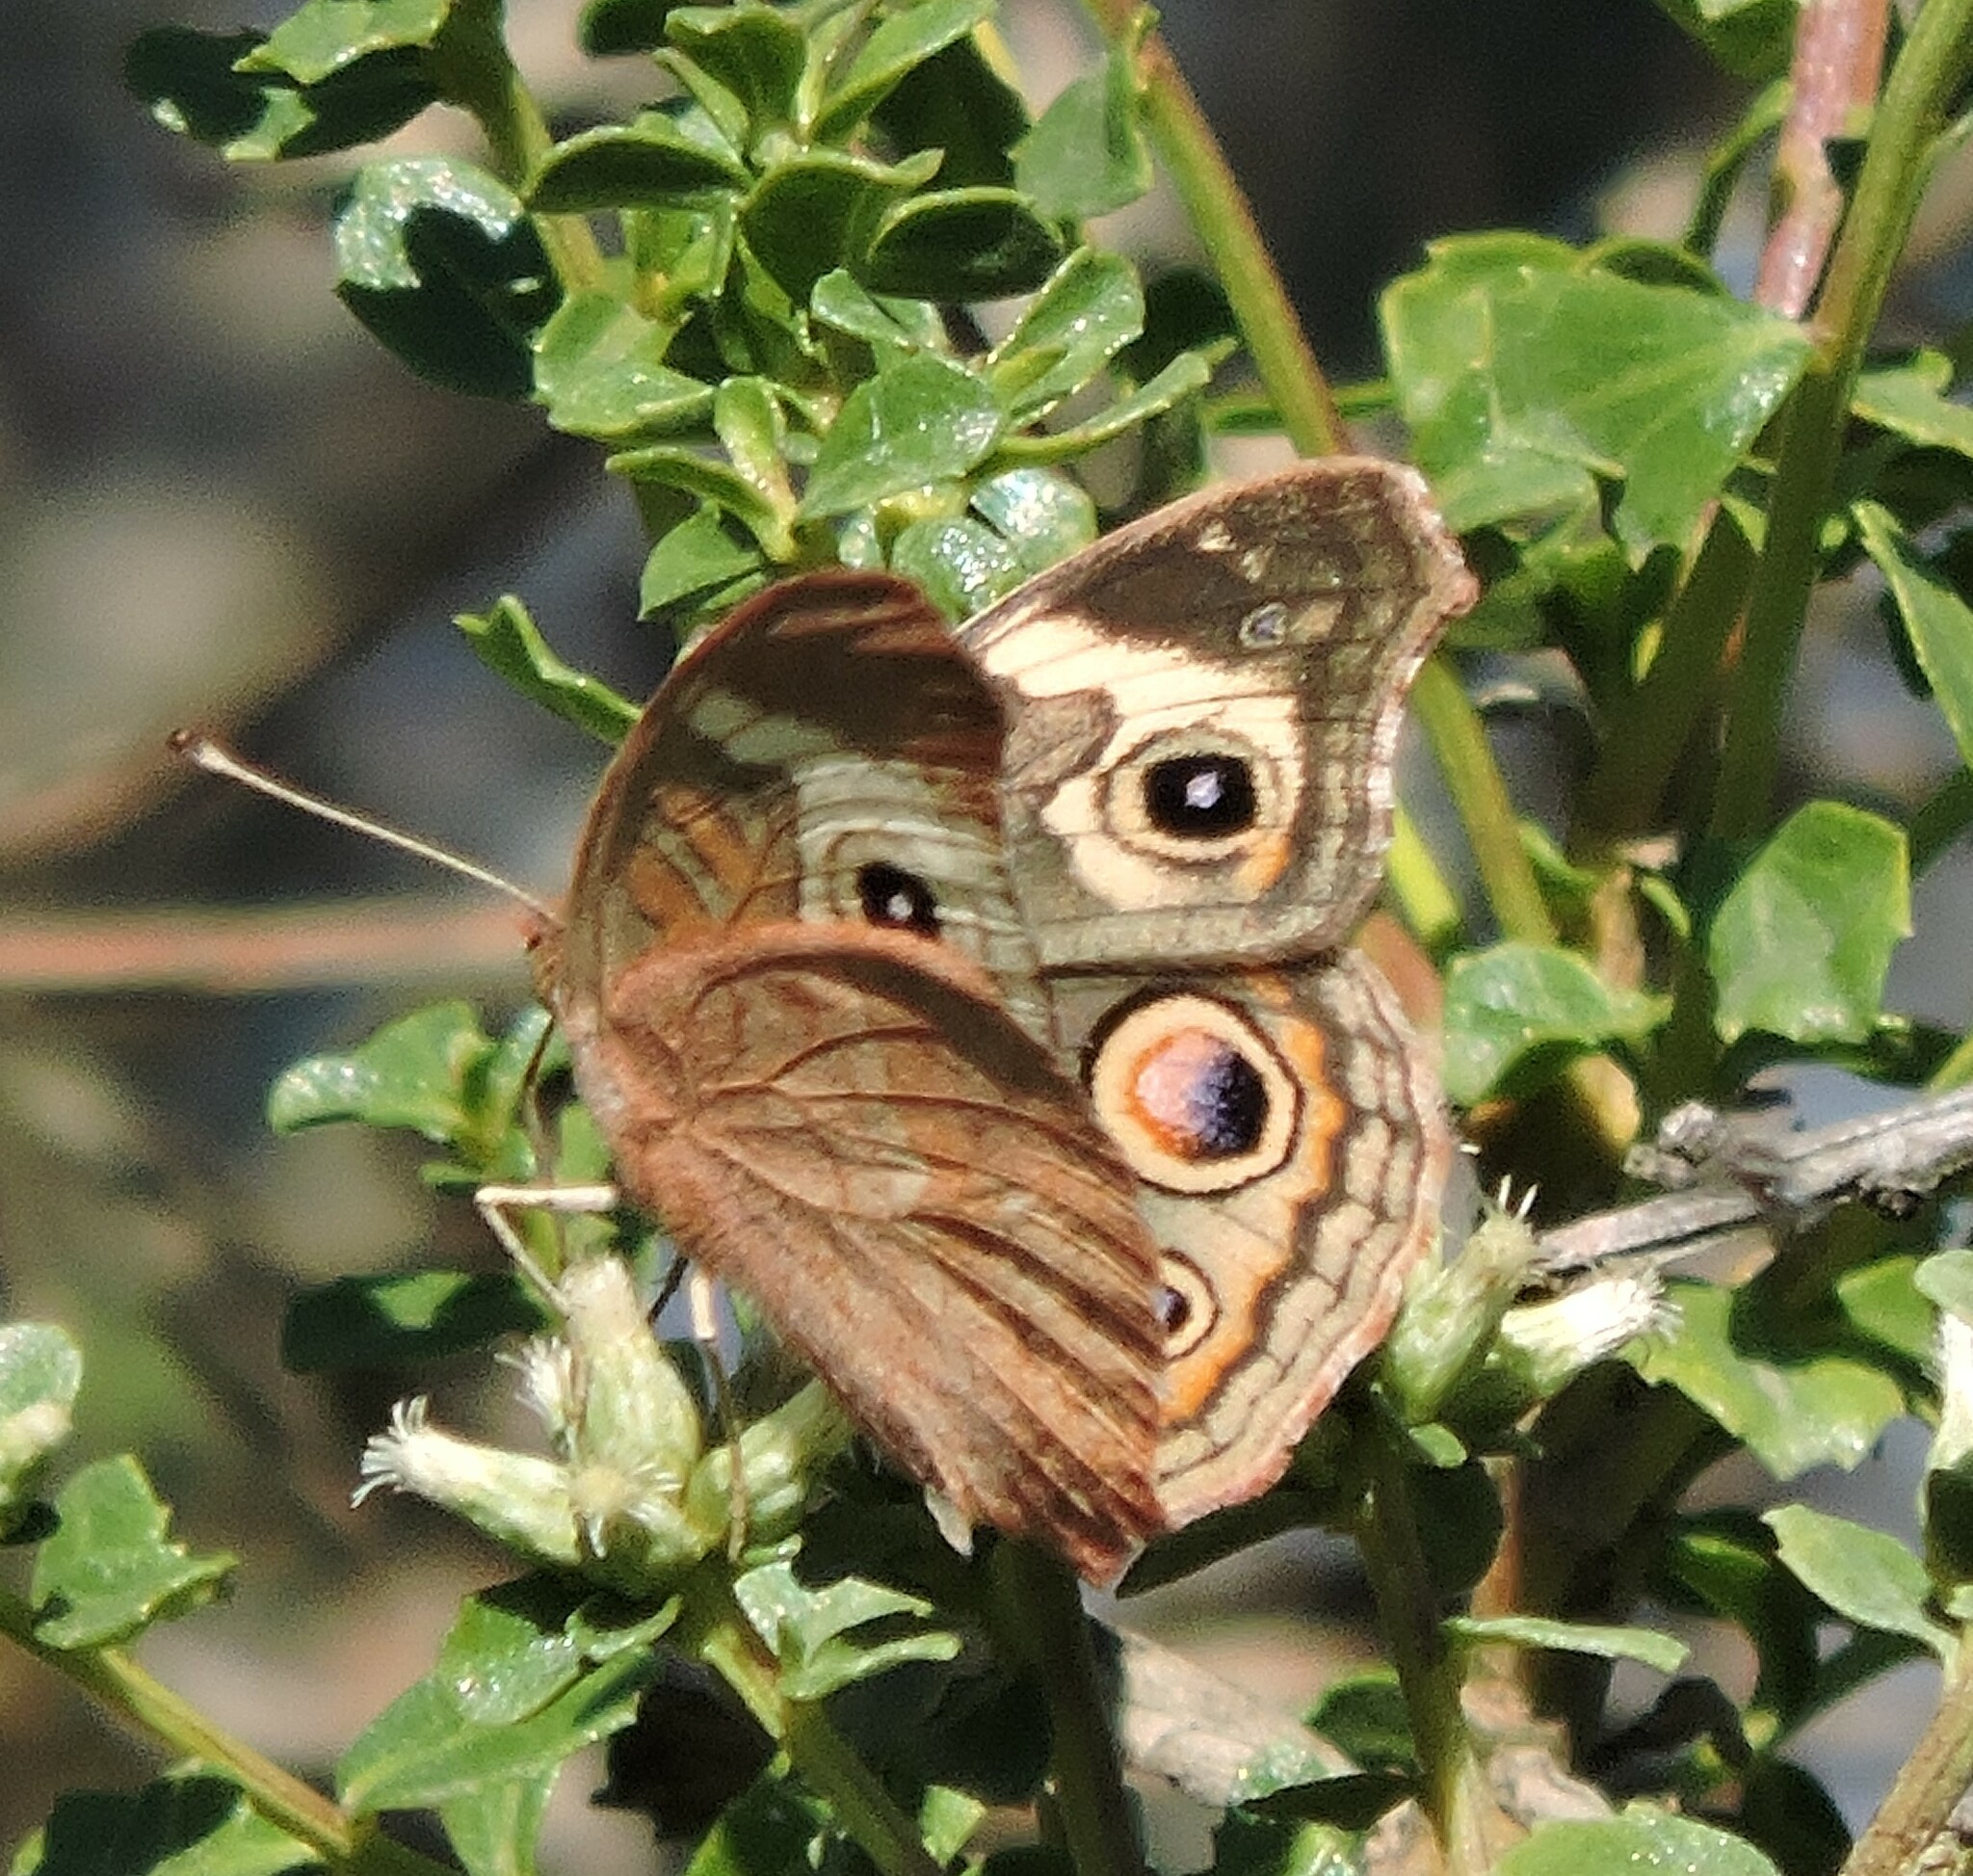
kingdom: Animalia
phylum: Arthropoda
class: Insecta
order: Lepidoptera
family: Nymphalidae
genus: Junonia
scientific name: Junonia grisea
